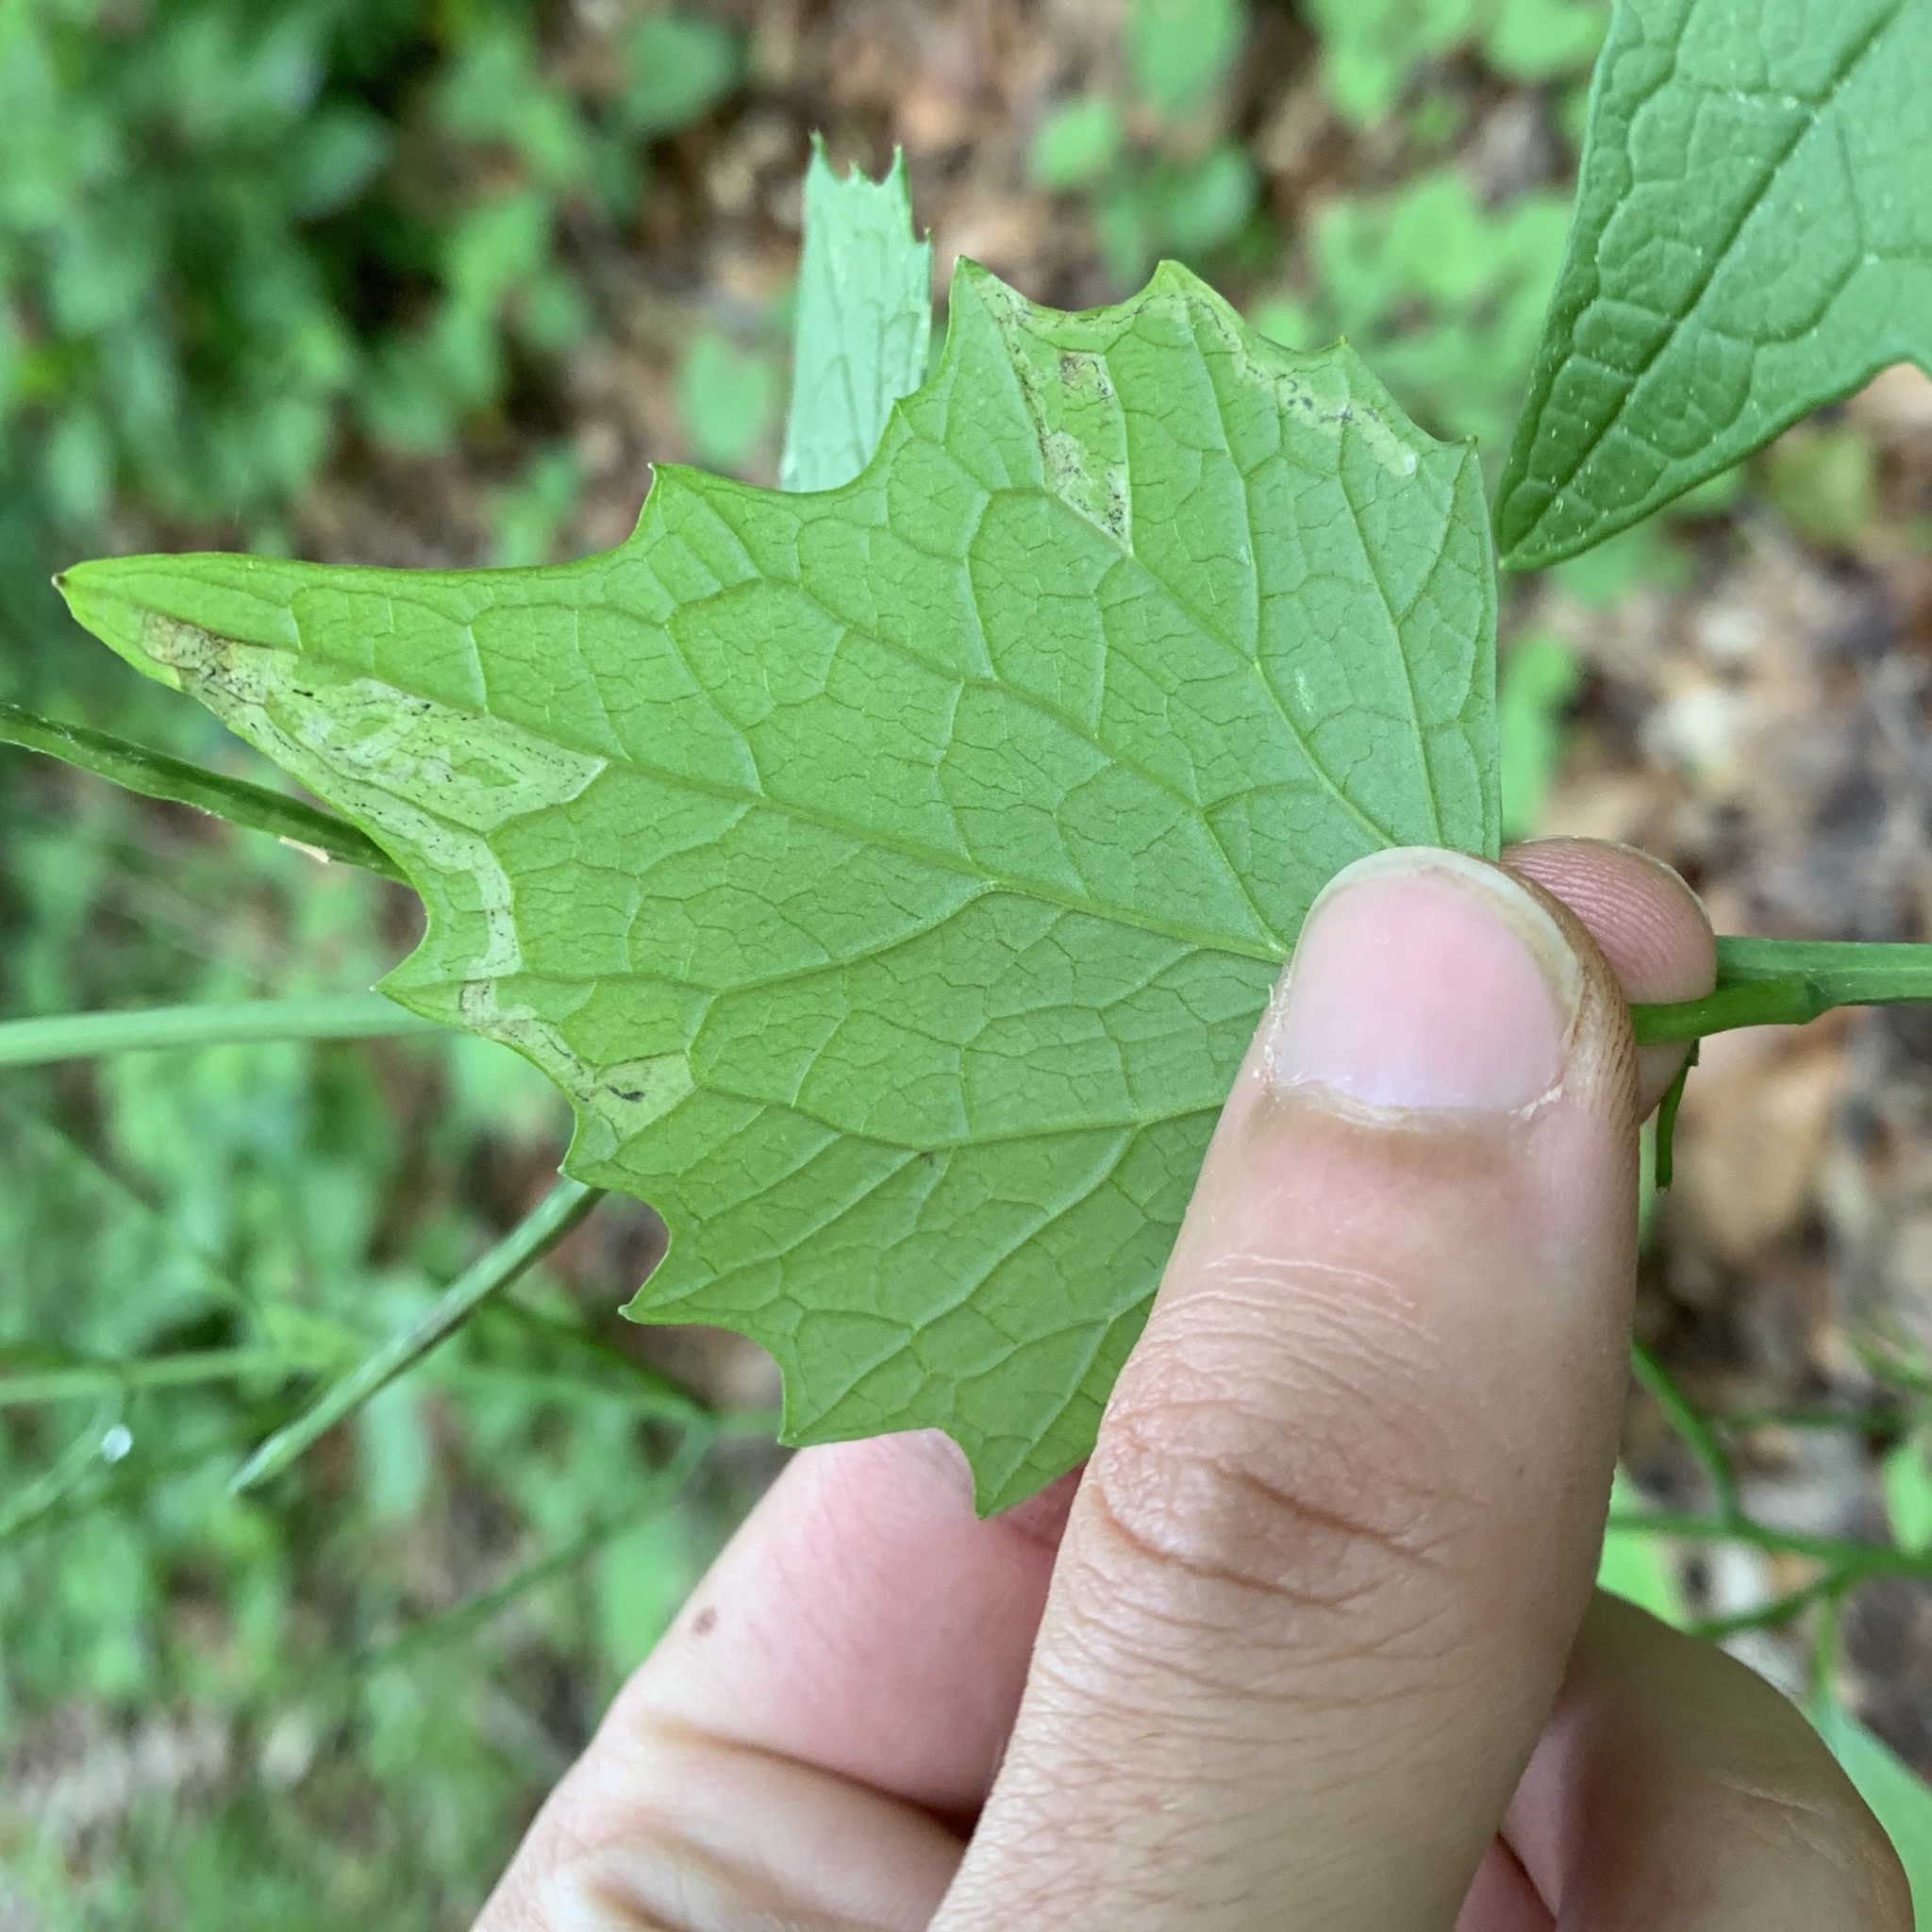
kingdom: Animalia
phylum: Arthropoda
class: Insecta
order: Diptera
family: Agromyzidae
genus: Liriomyza
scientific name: Liriomyza brassicae
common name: Serpentine leaf miner
